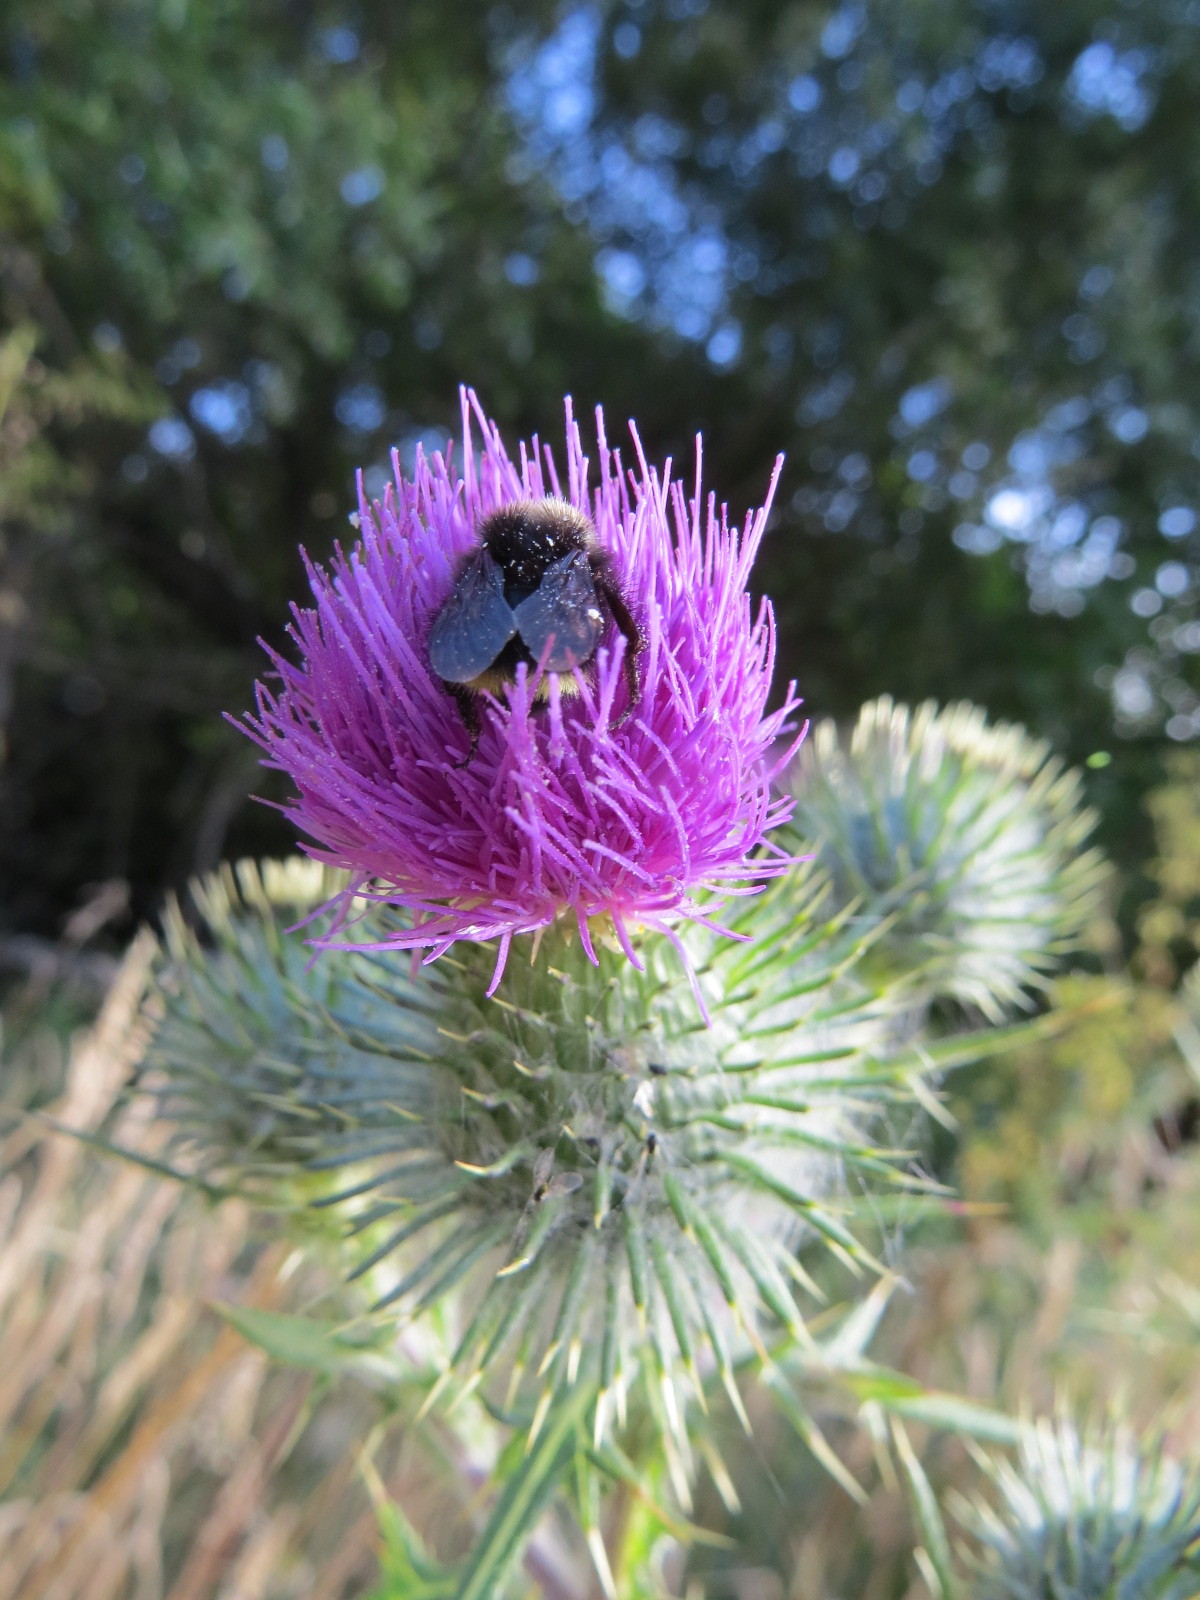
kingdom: Animalia
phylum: Arthropoda
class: Insecta
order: Hymenoptera
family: Apidae
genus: Pyrobombus
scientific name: Pyrobombus
